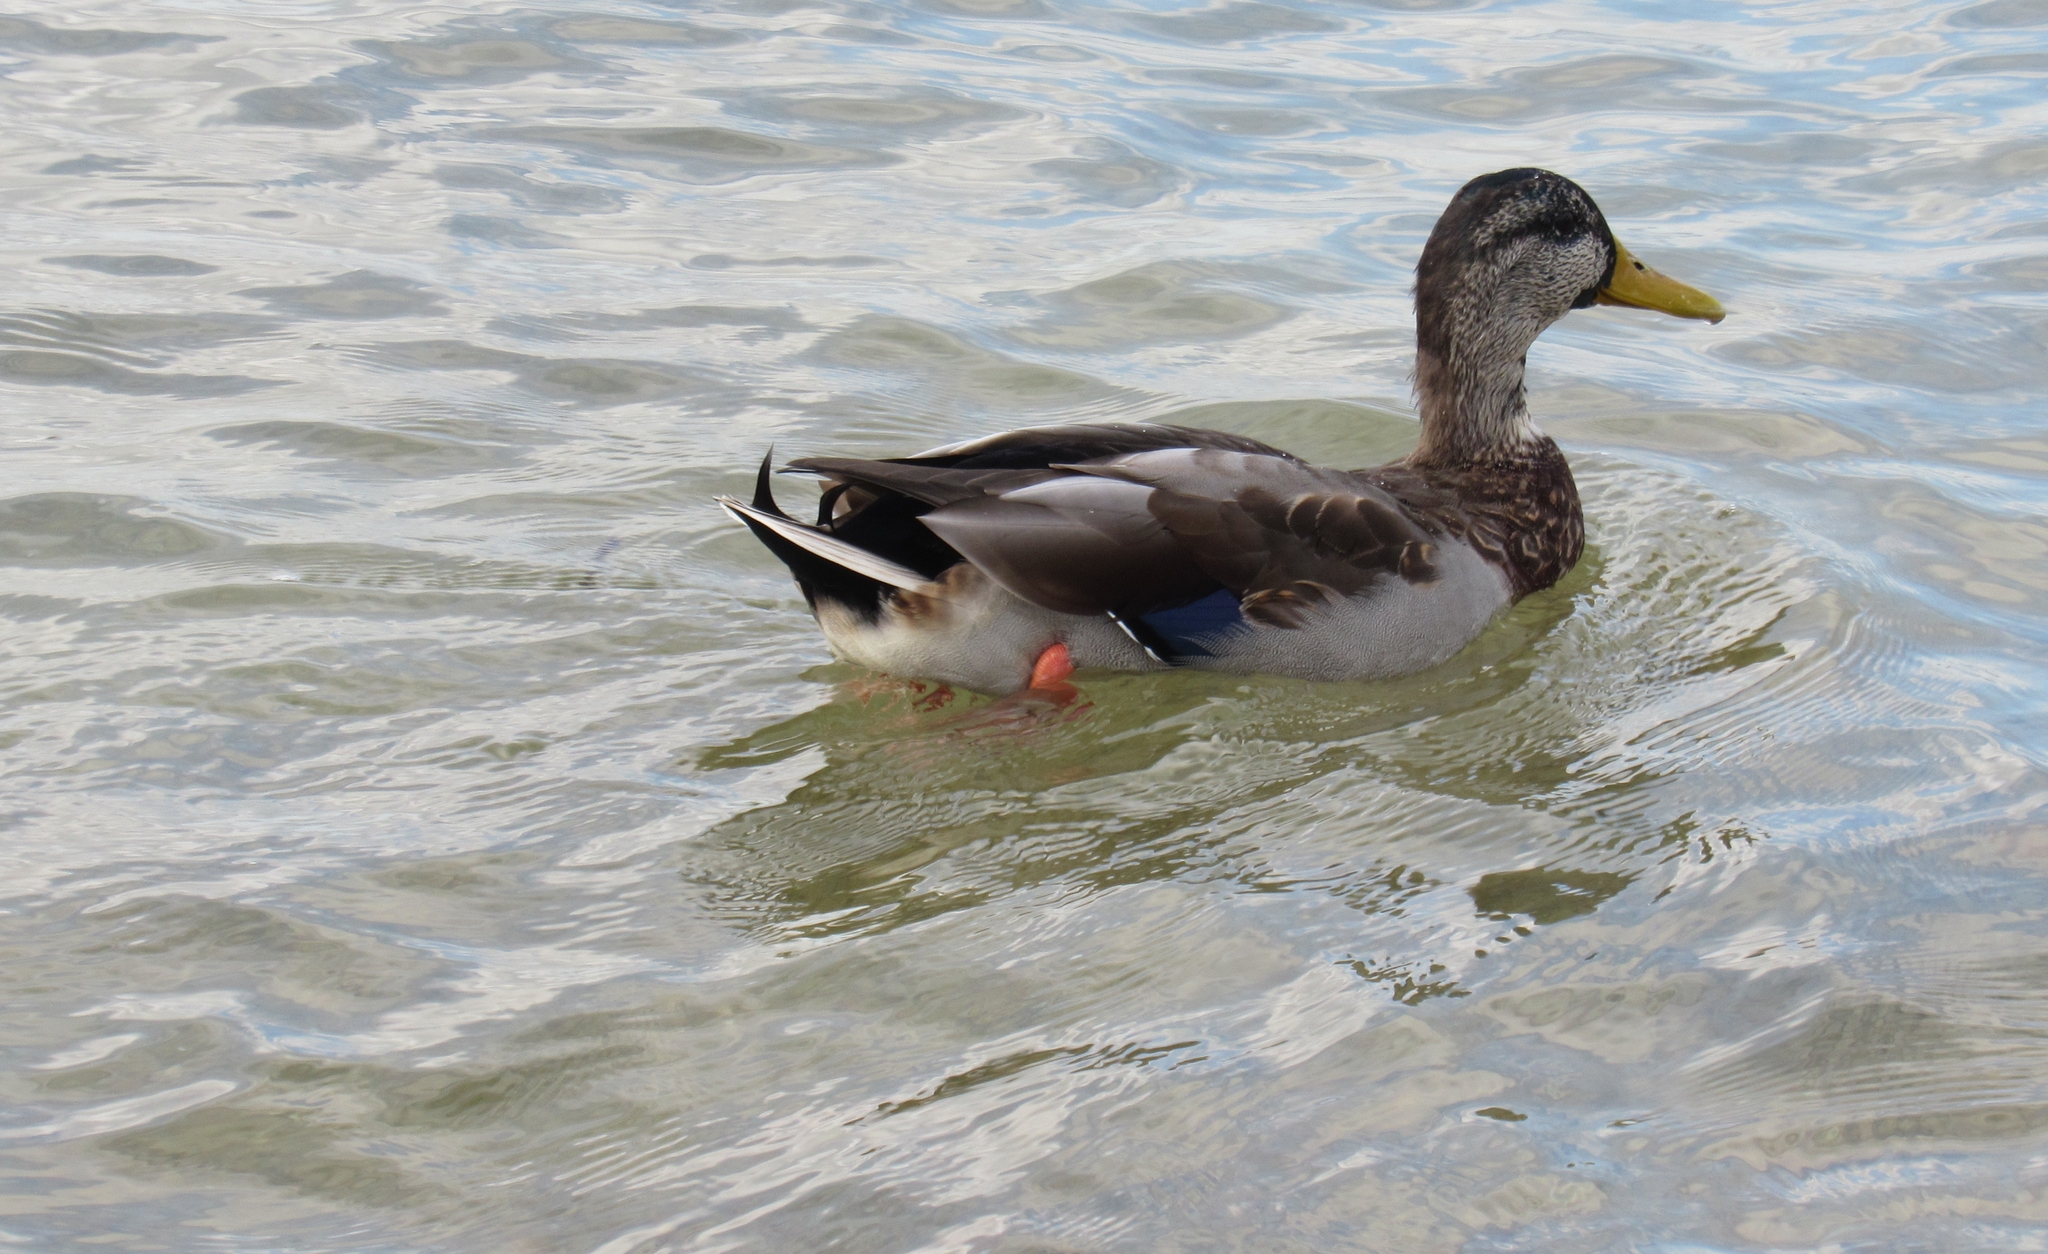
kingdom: Animalia
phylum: Chordata
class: Aves
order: Anseriformes
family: Anatidae
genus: Anas
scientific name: Anas platyrhynchos
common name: Mallard
